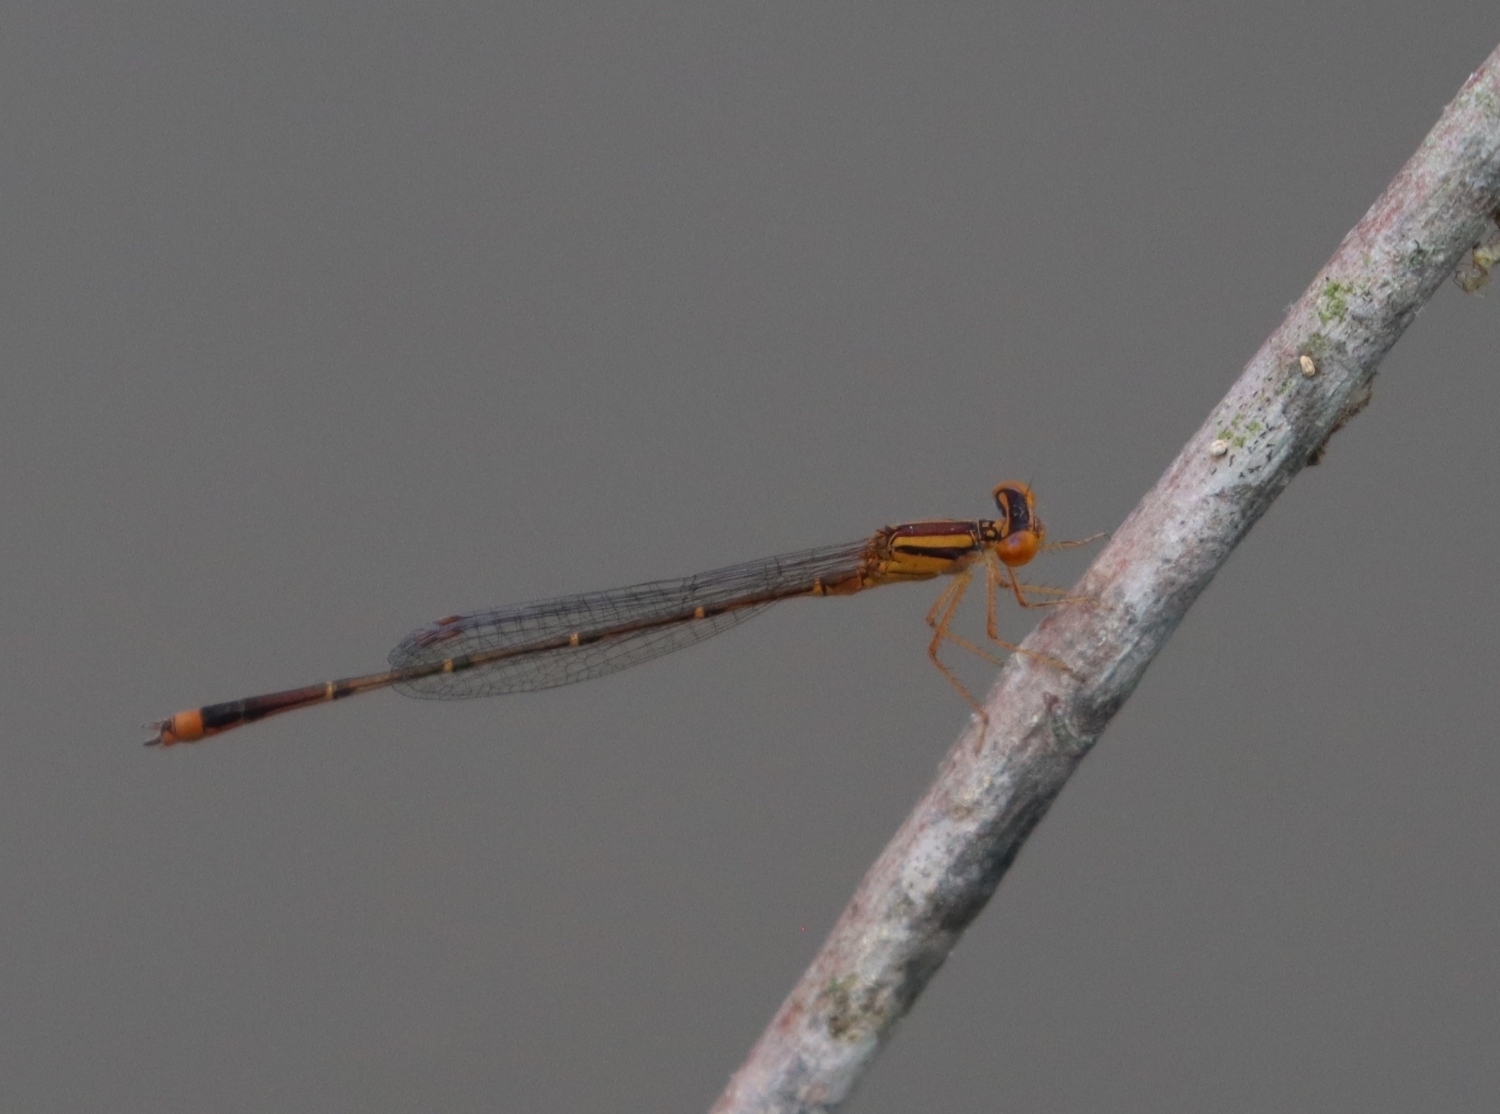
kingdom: Animalia
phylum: Arthropoda
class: Insecta
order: Odonata
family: Coenagrionidae
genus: Enallagma
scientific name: Enallagma signatum
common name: Orange bluet
